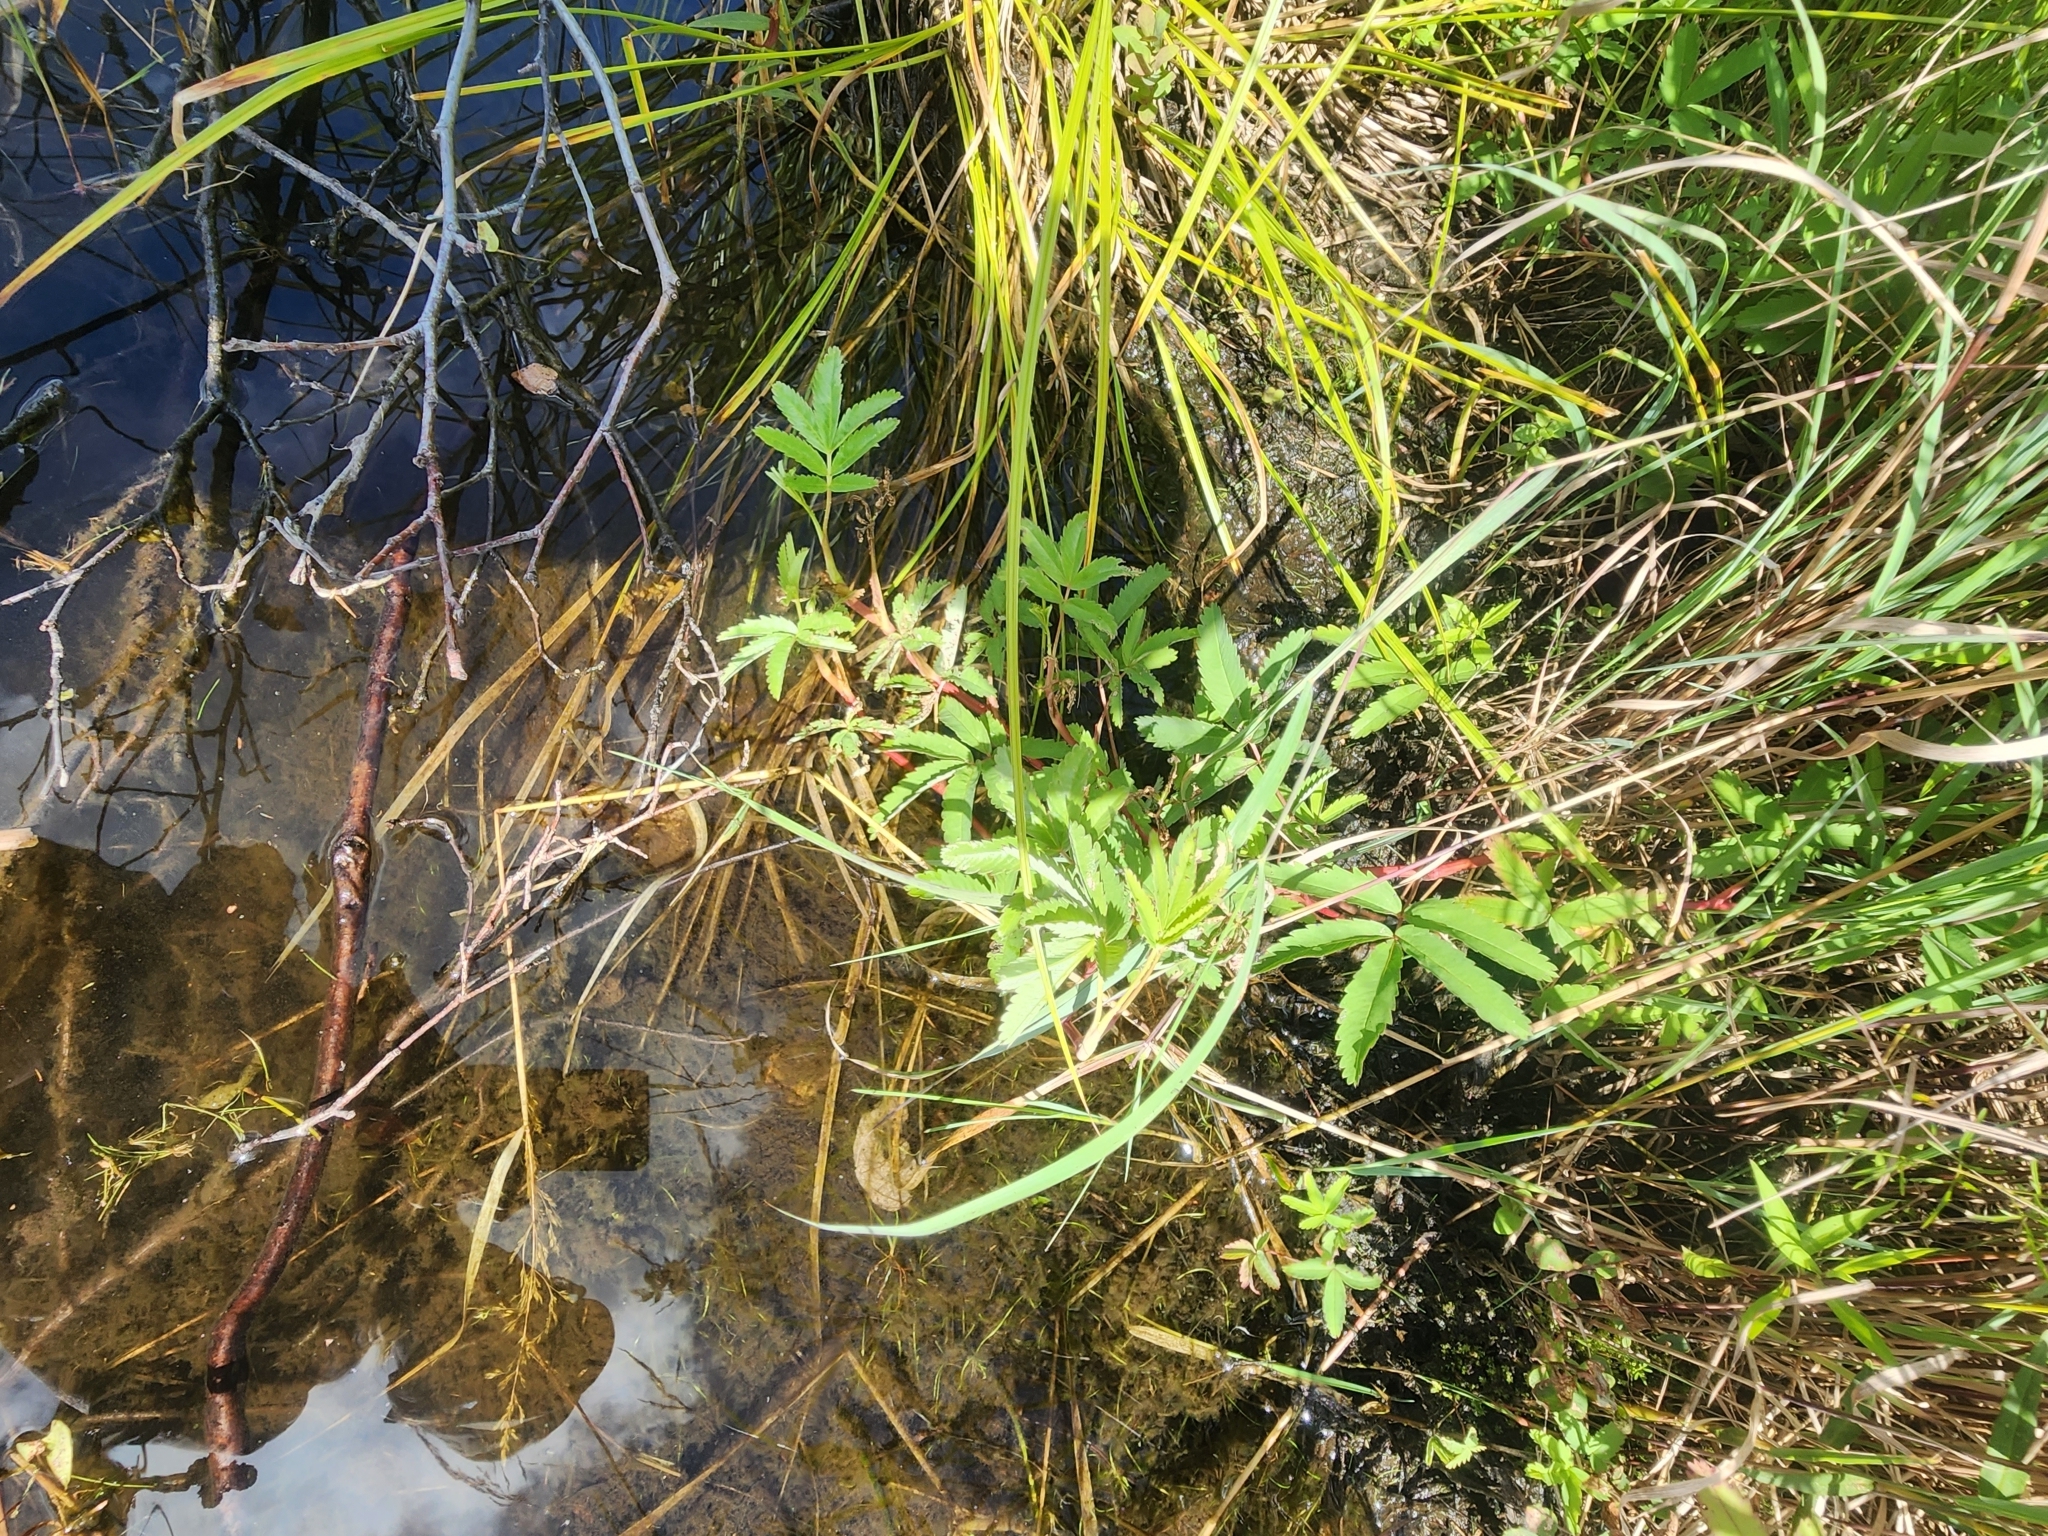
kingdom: Plantae
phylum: Tracheophyta
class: Magnoliopsida
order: Rosales
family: Rosaceae
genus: Comarum
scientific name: Comarum palustre
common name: Marsh cinquefoil
